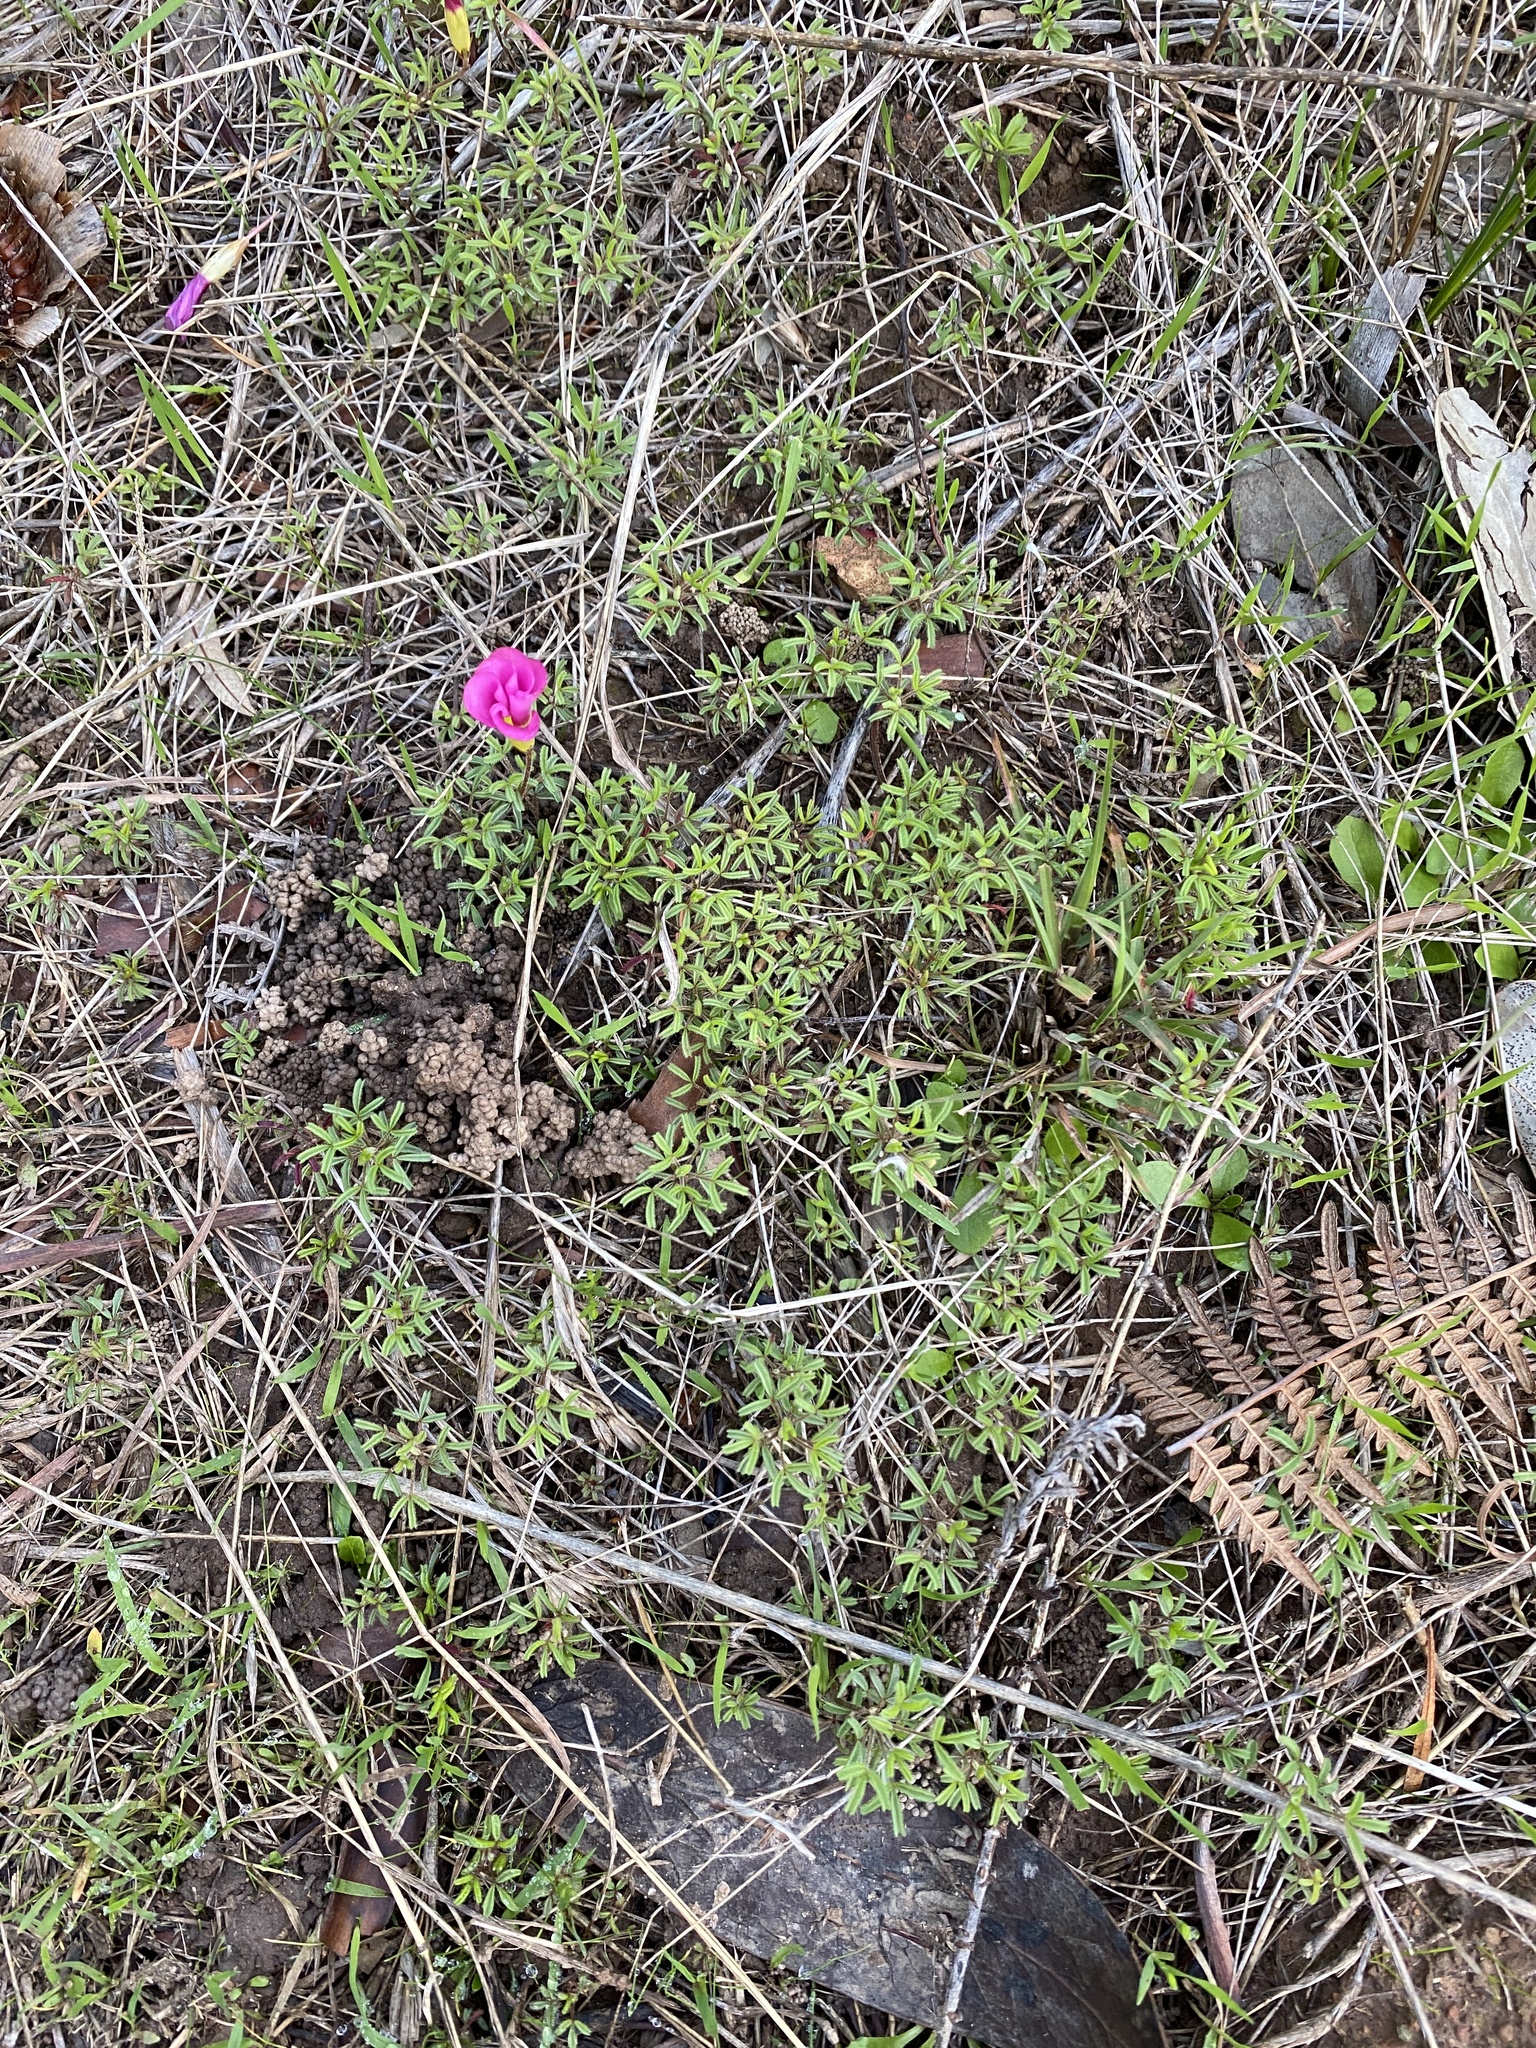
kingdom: Plantae
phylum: Tracheophyta
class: Magnoliopsida
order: Oxalidales
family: Oxalidaceae
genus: Oxalis
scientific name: Oxalis glabra
